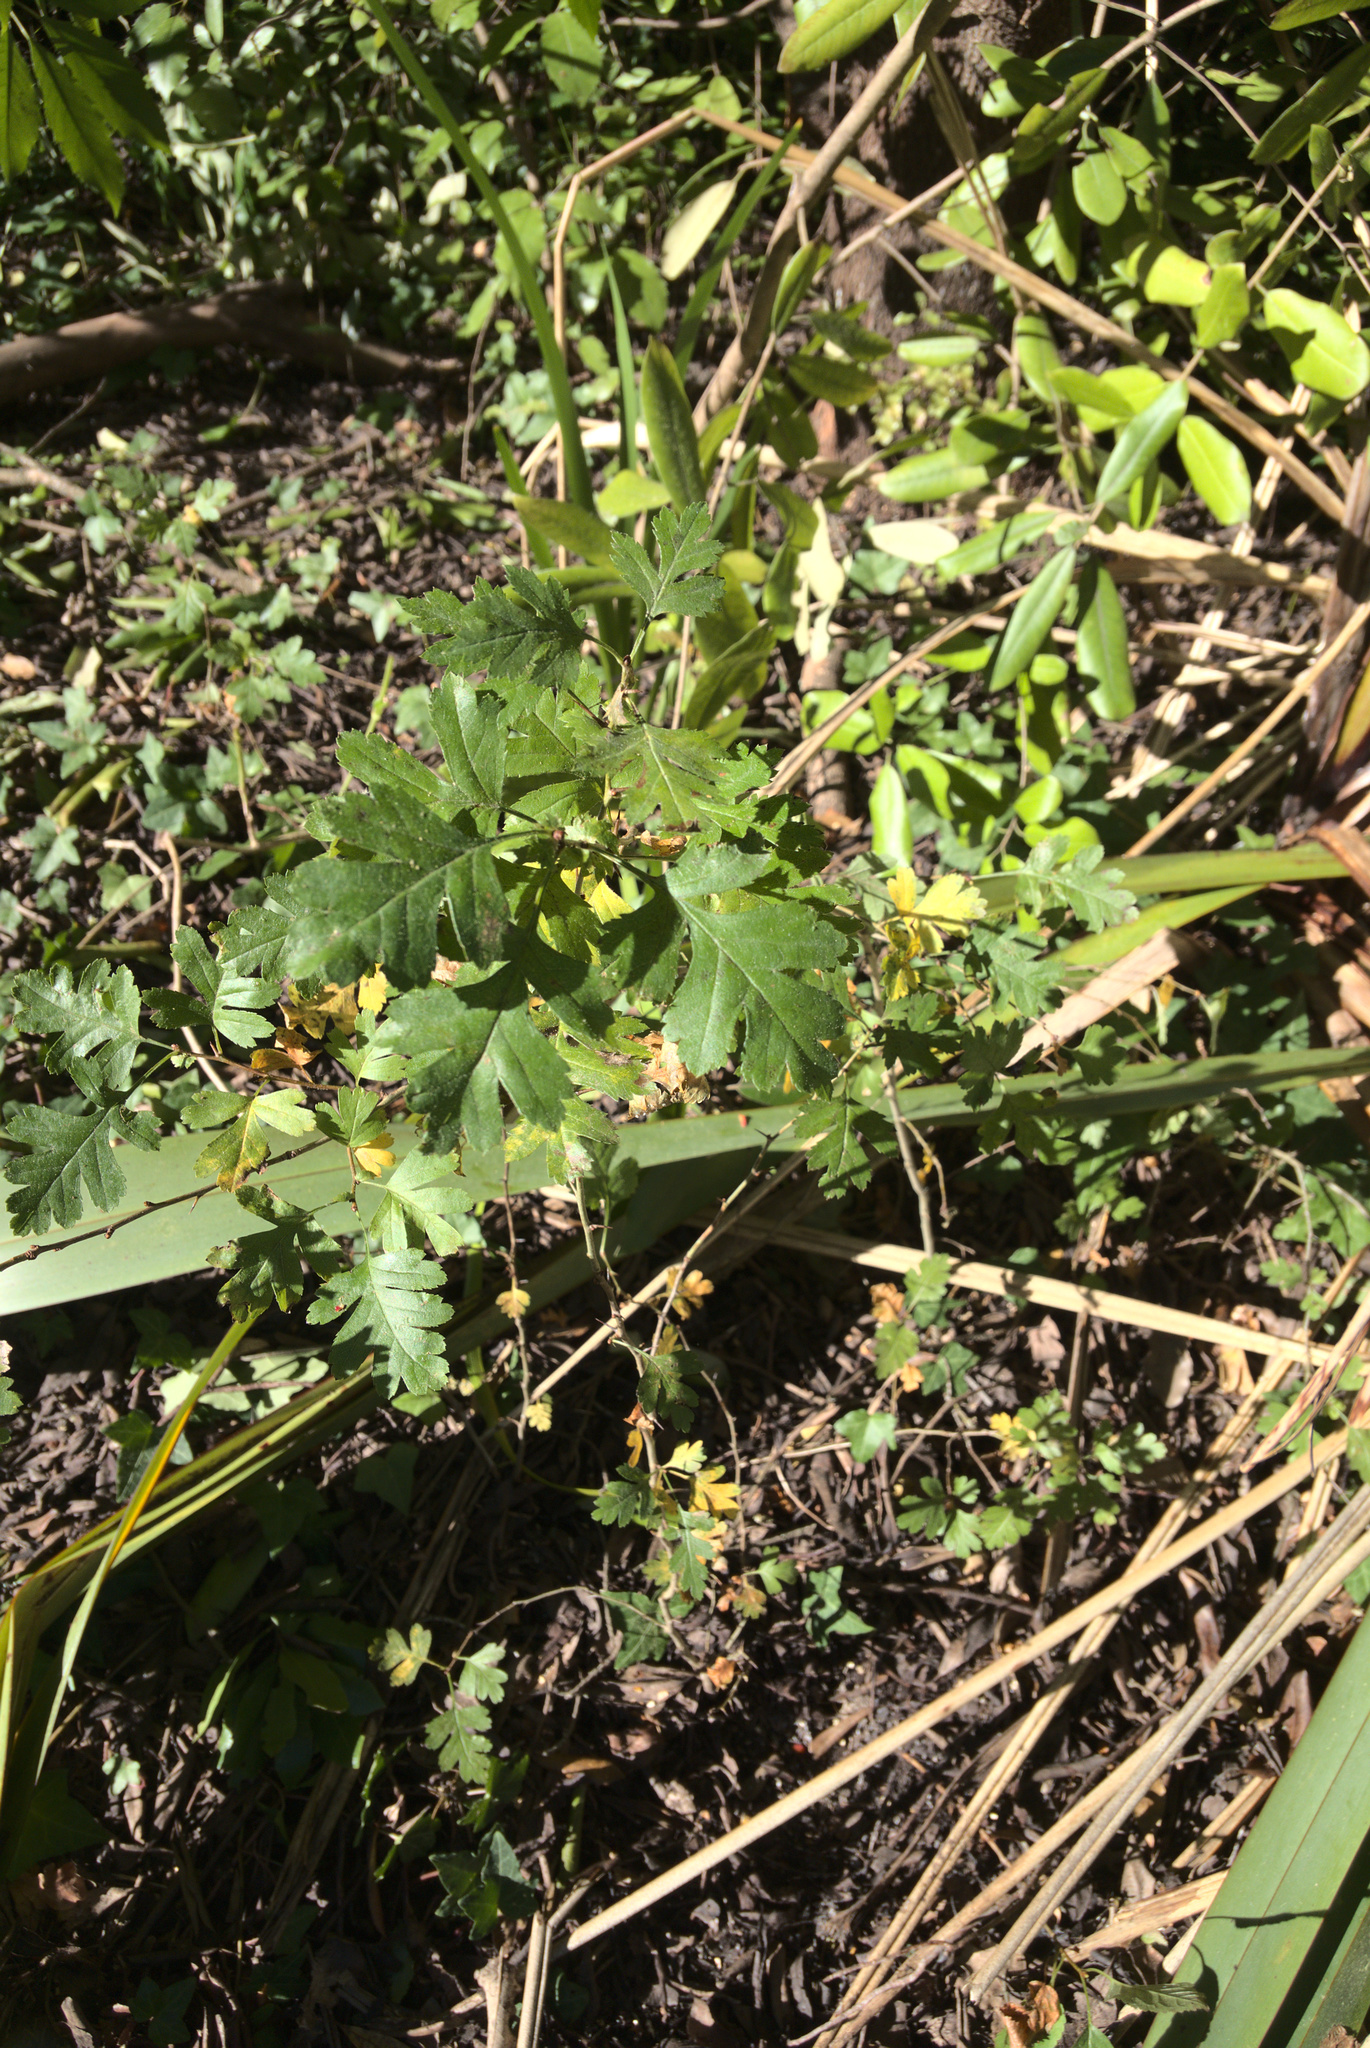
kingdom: Plantae
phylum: Tracheophyta
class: Magnoliopsida
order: Rosales
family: Rosaceae
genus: Crataegus
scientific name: Crataegus monogyna
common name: Hawthorn
